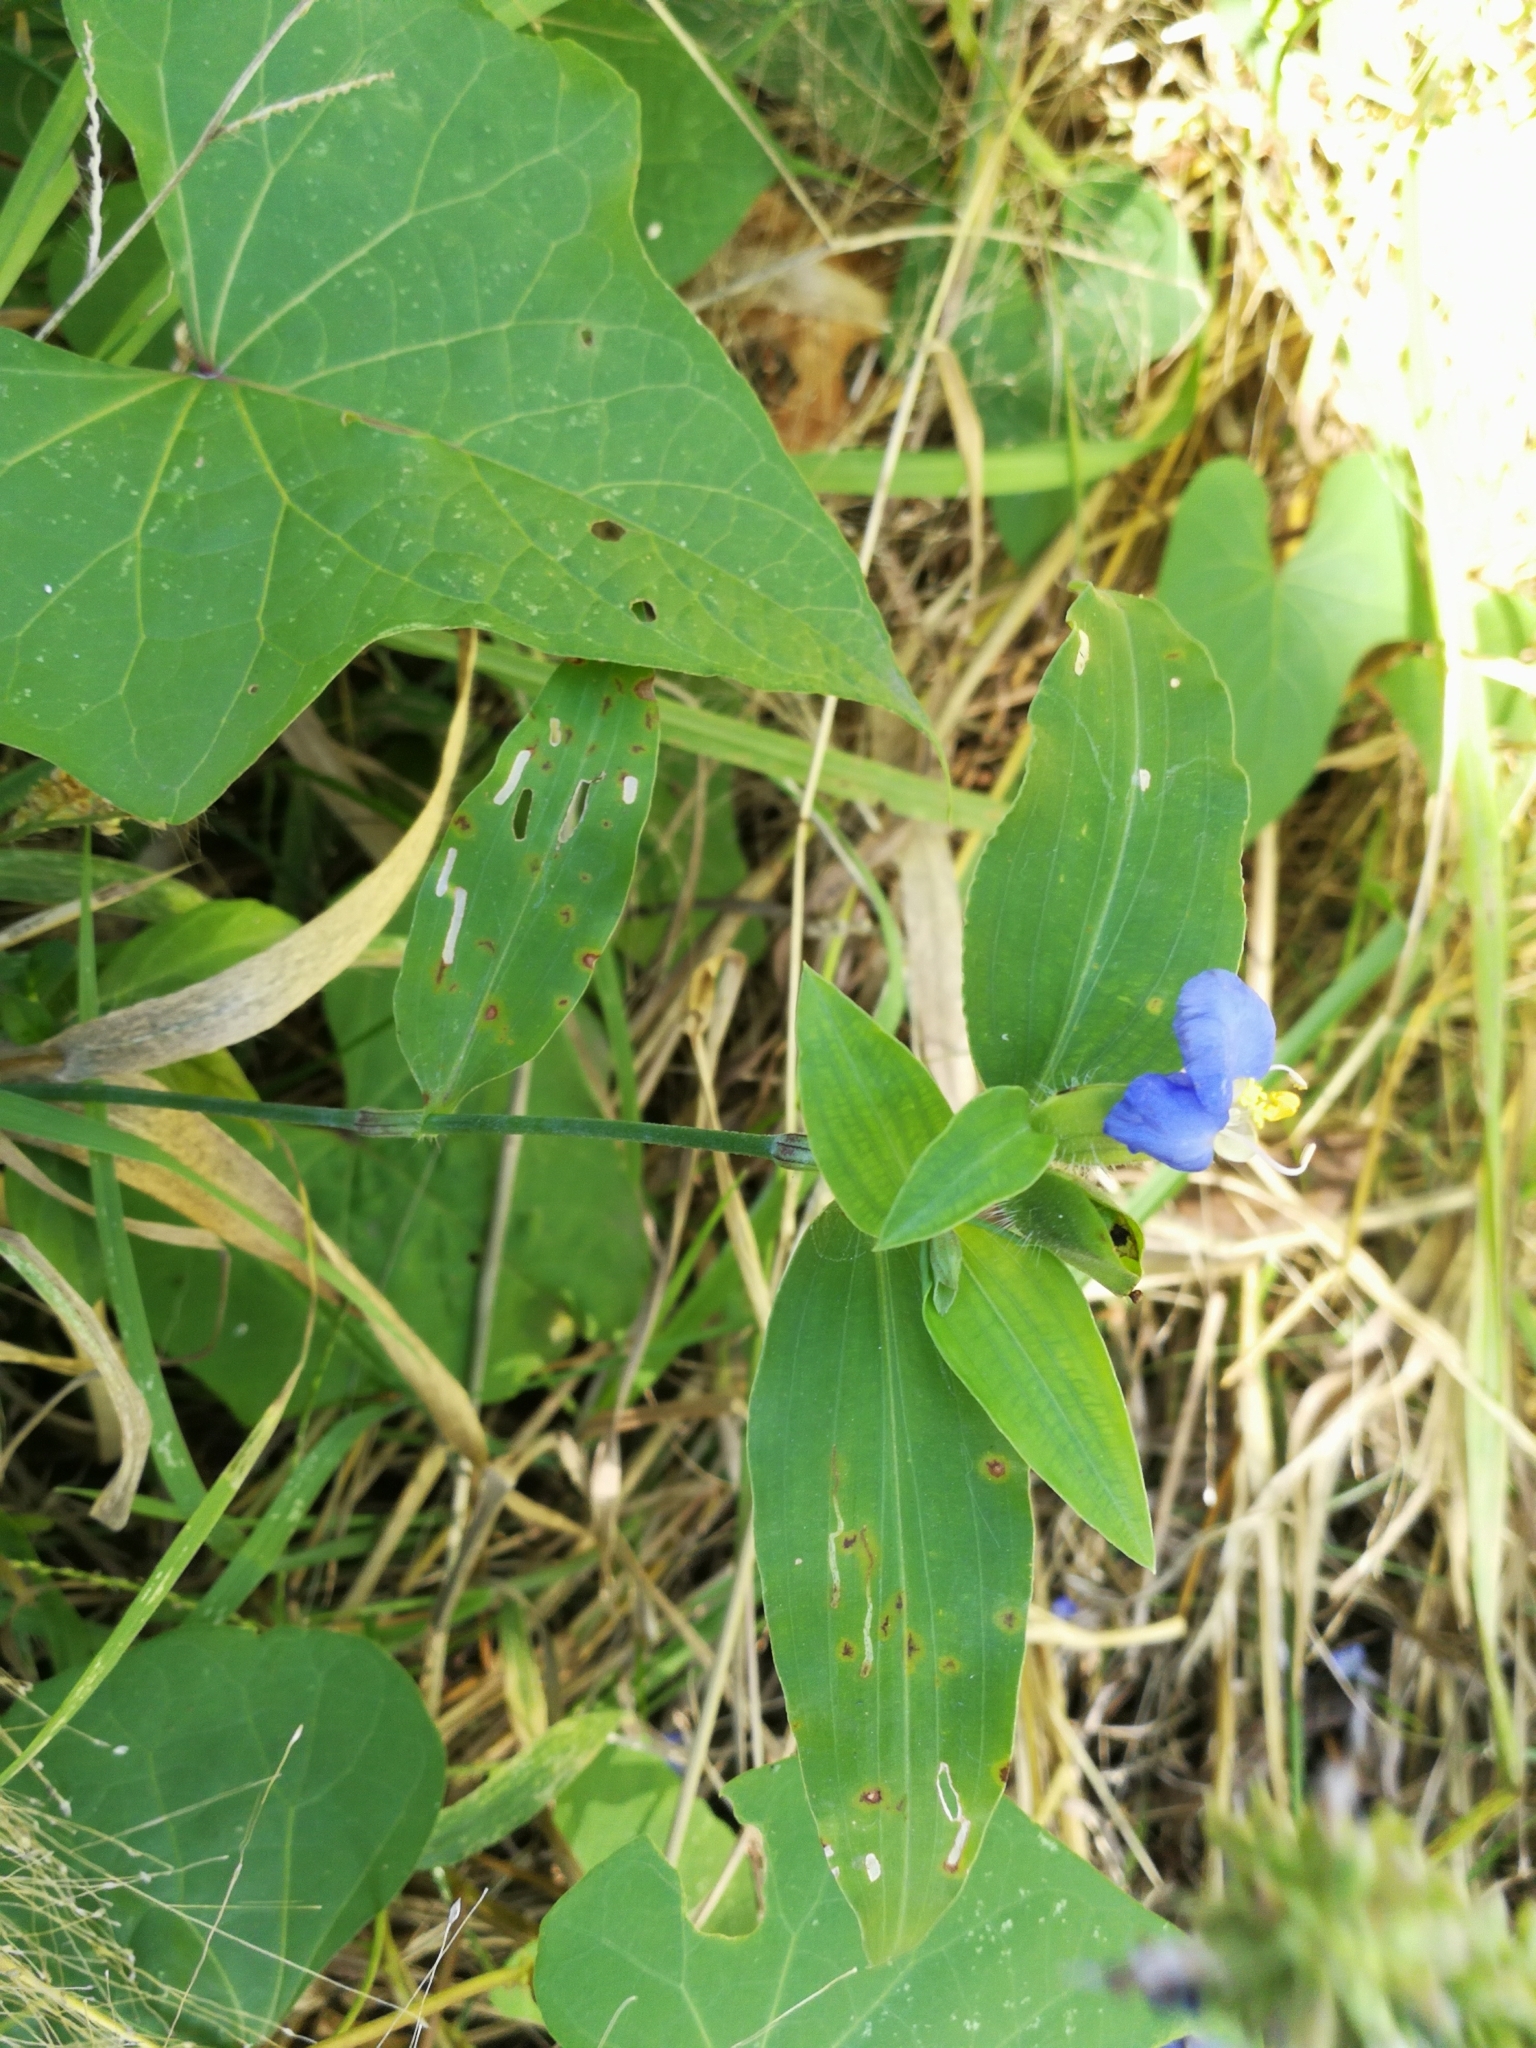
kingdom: Plantae
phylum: Tracheophyta
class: Liliopsida
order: Commelinales
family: Commelinaceae
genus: Commelina
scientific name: Commelina erecta
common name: Blousel blommetjie
